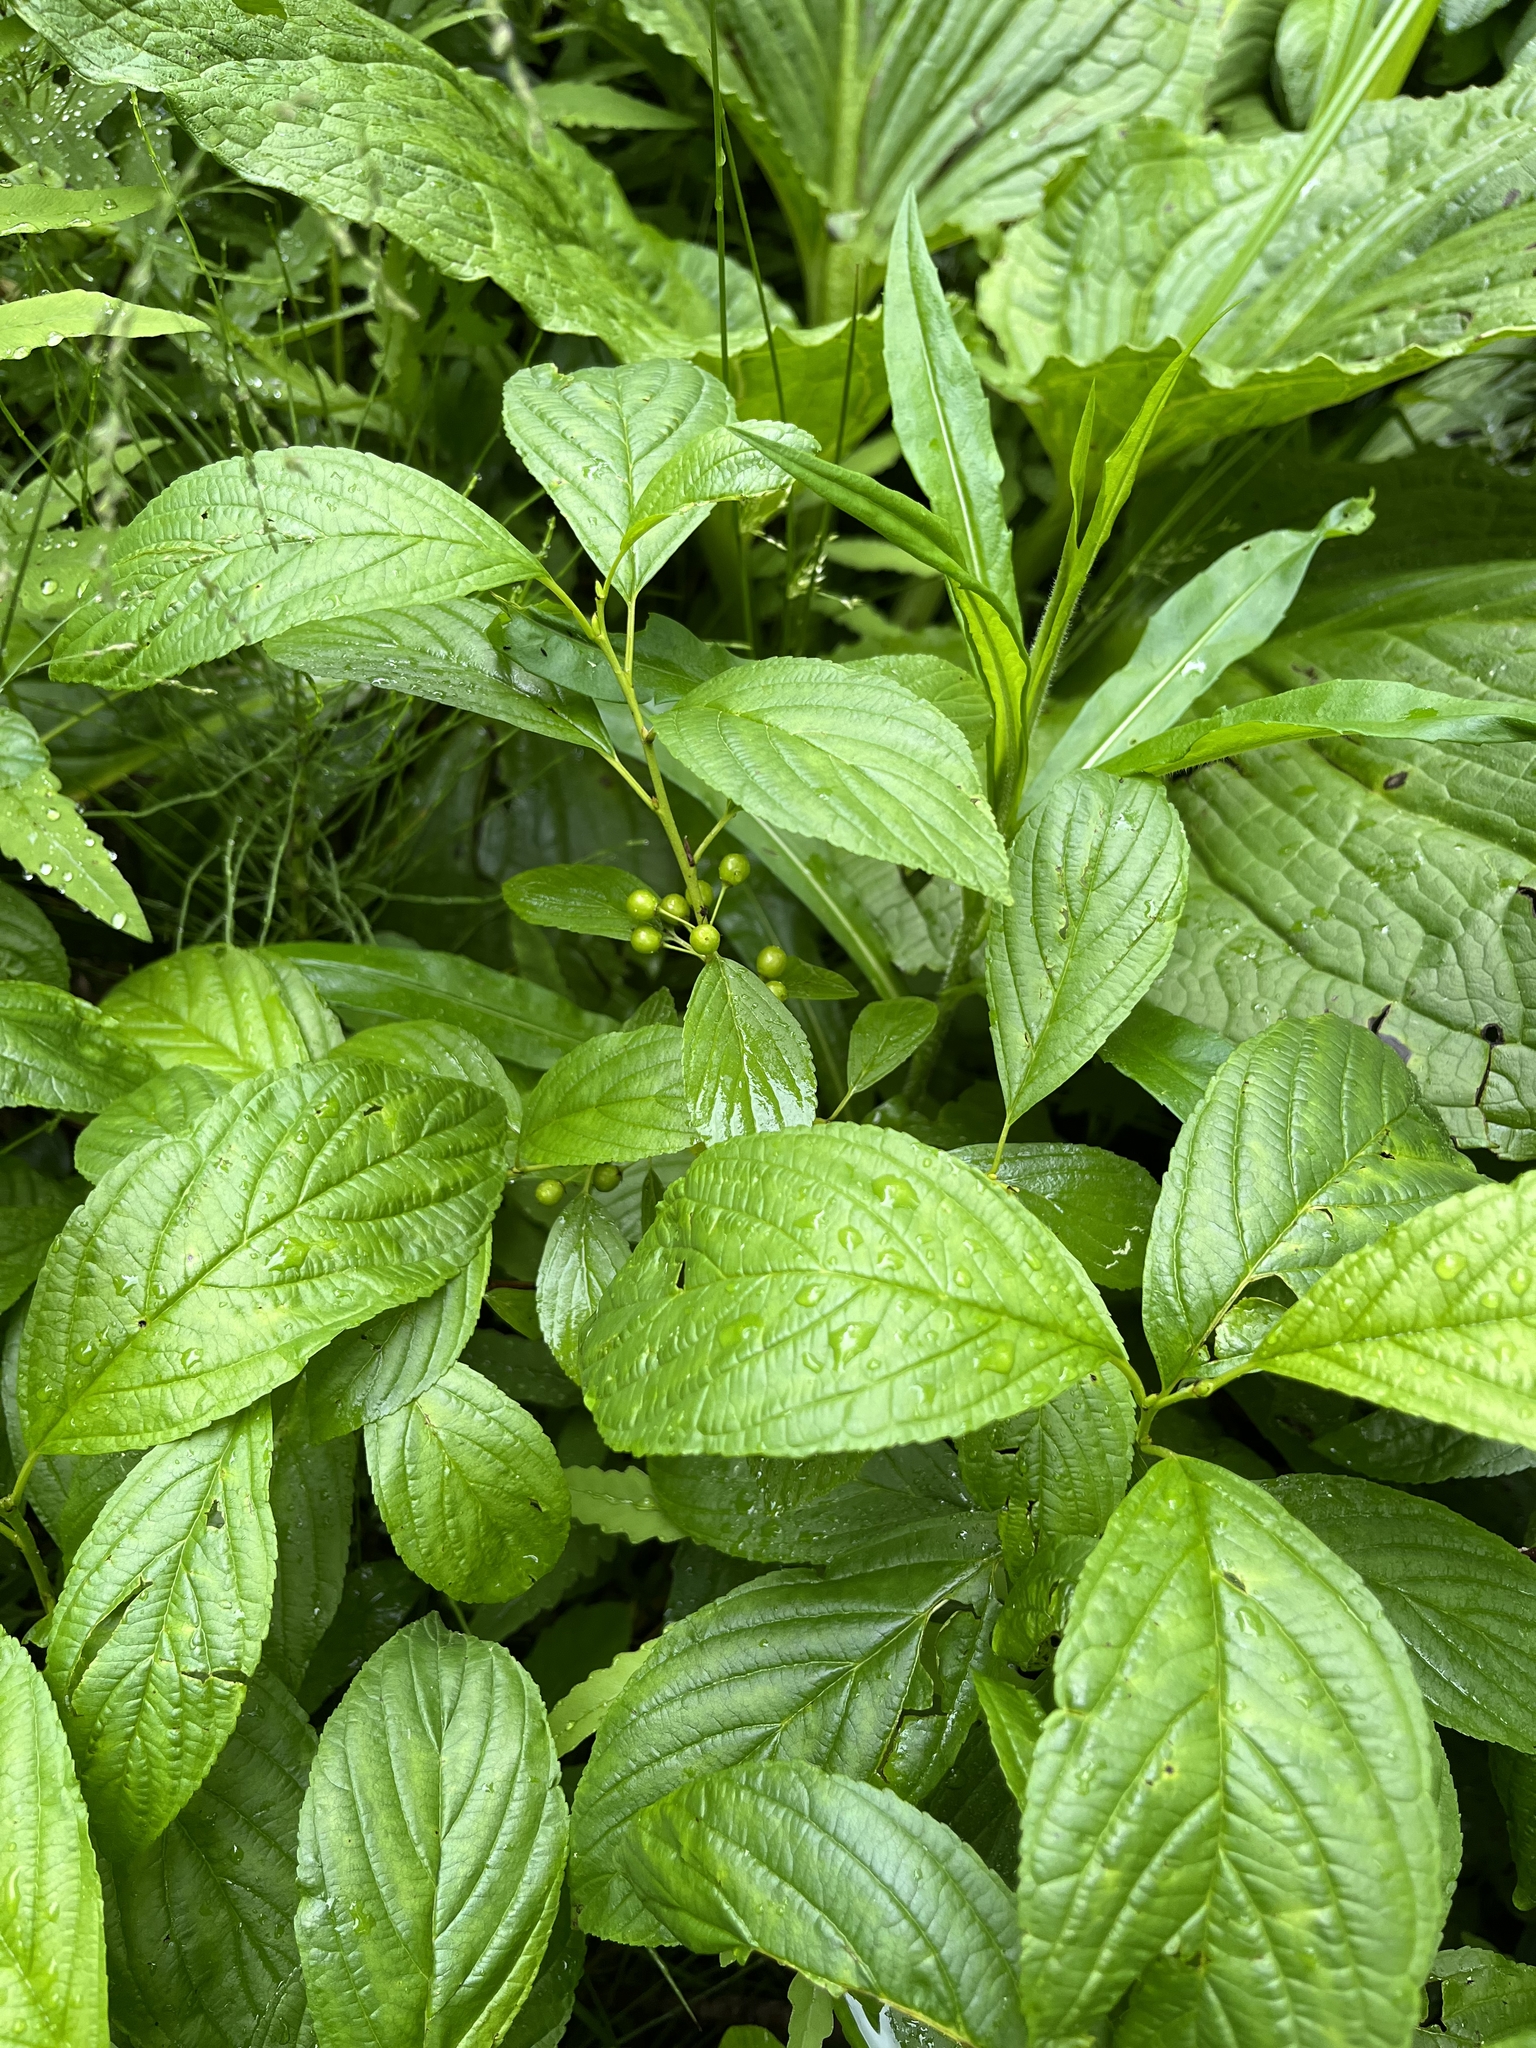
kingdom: Plantae
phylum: Tracheophyta
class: Magnoliopsida
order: Rosales
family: Rhamnaceae
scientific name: Rhamnaceae
